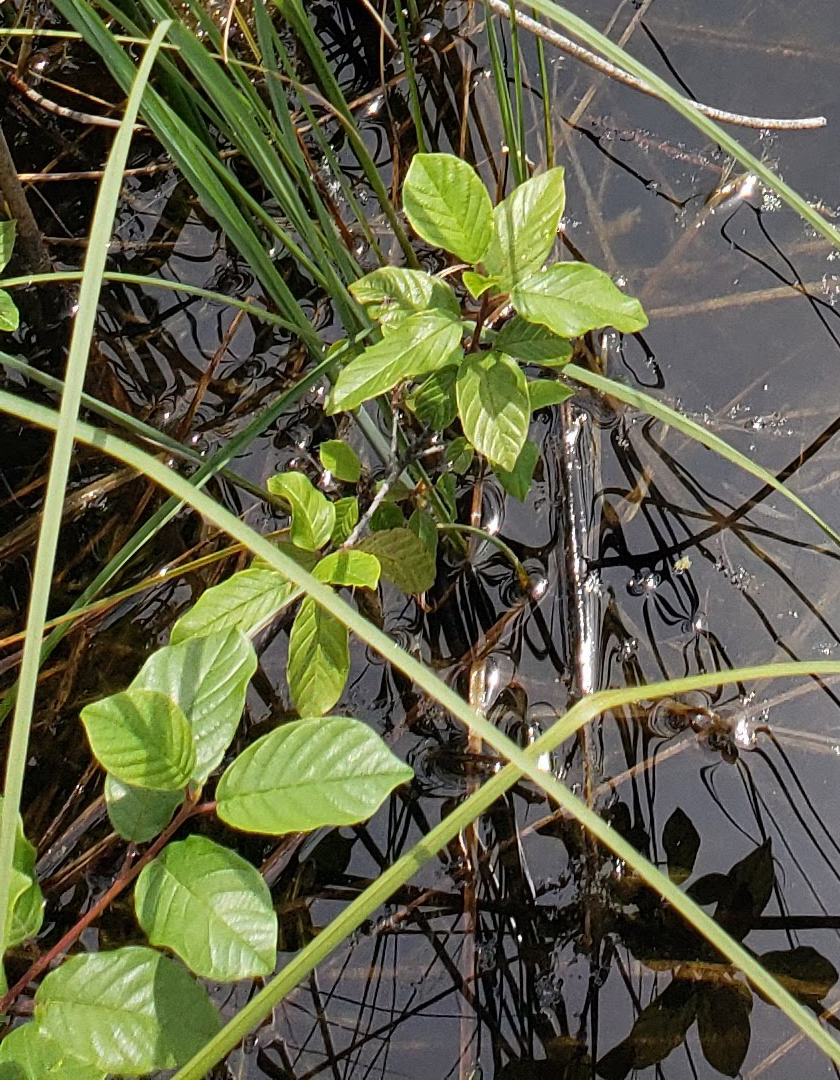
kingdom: Plantae
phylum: Tracheophyta
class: Magnoliopsida
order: Rosales
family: Rhamnaceae
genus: Frangula
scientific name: Frangula alnus
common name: Alder buckthorn
